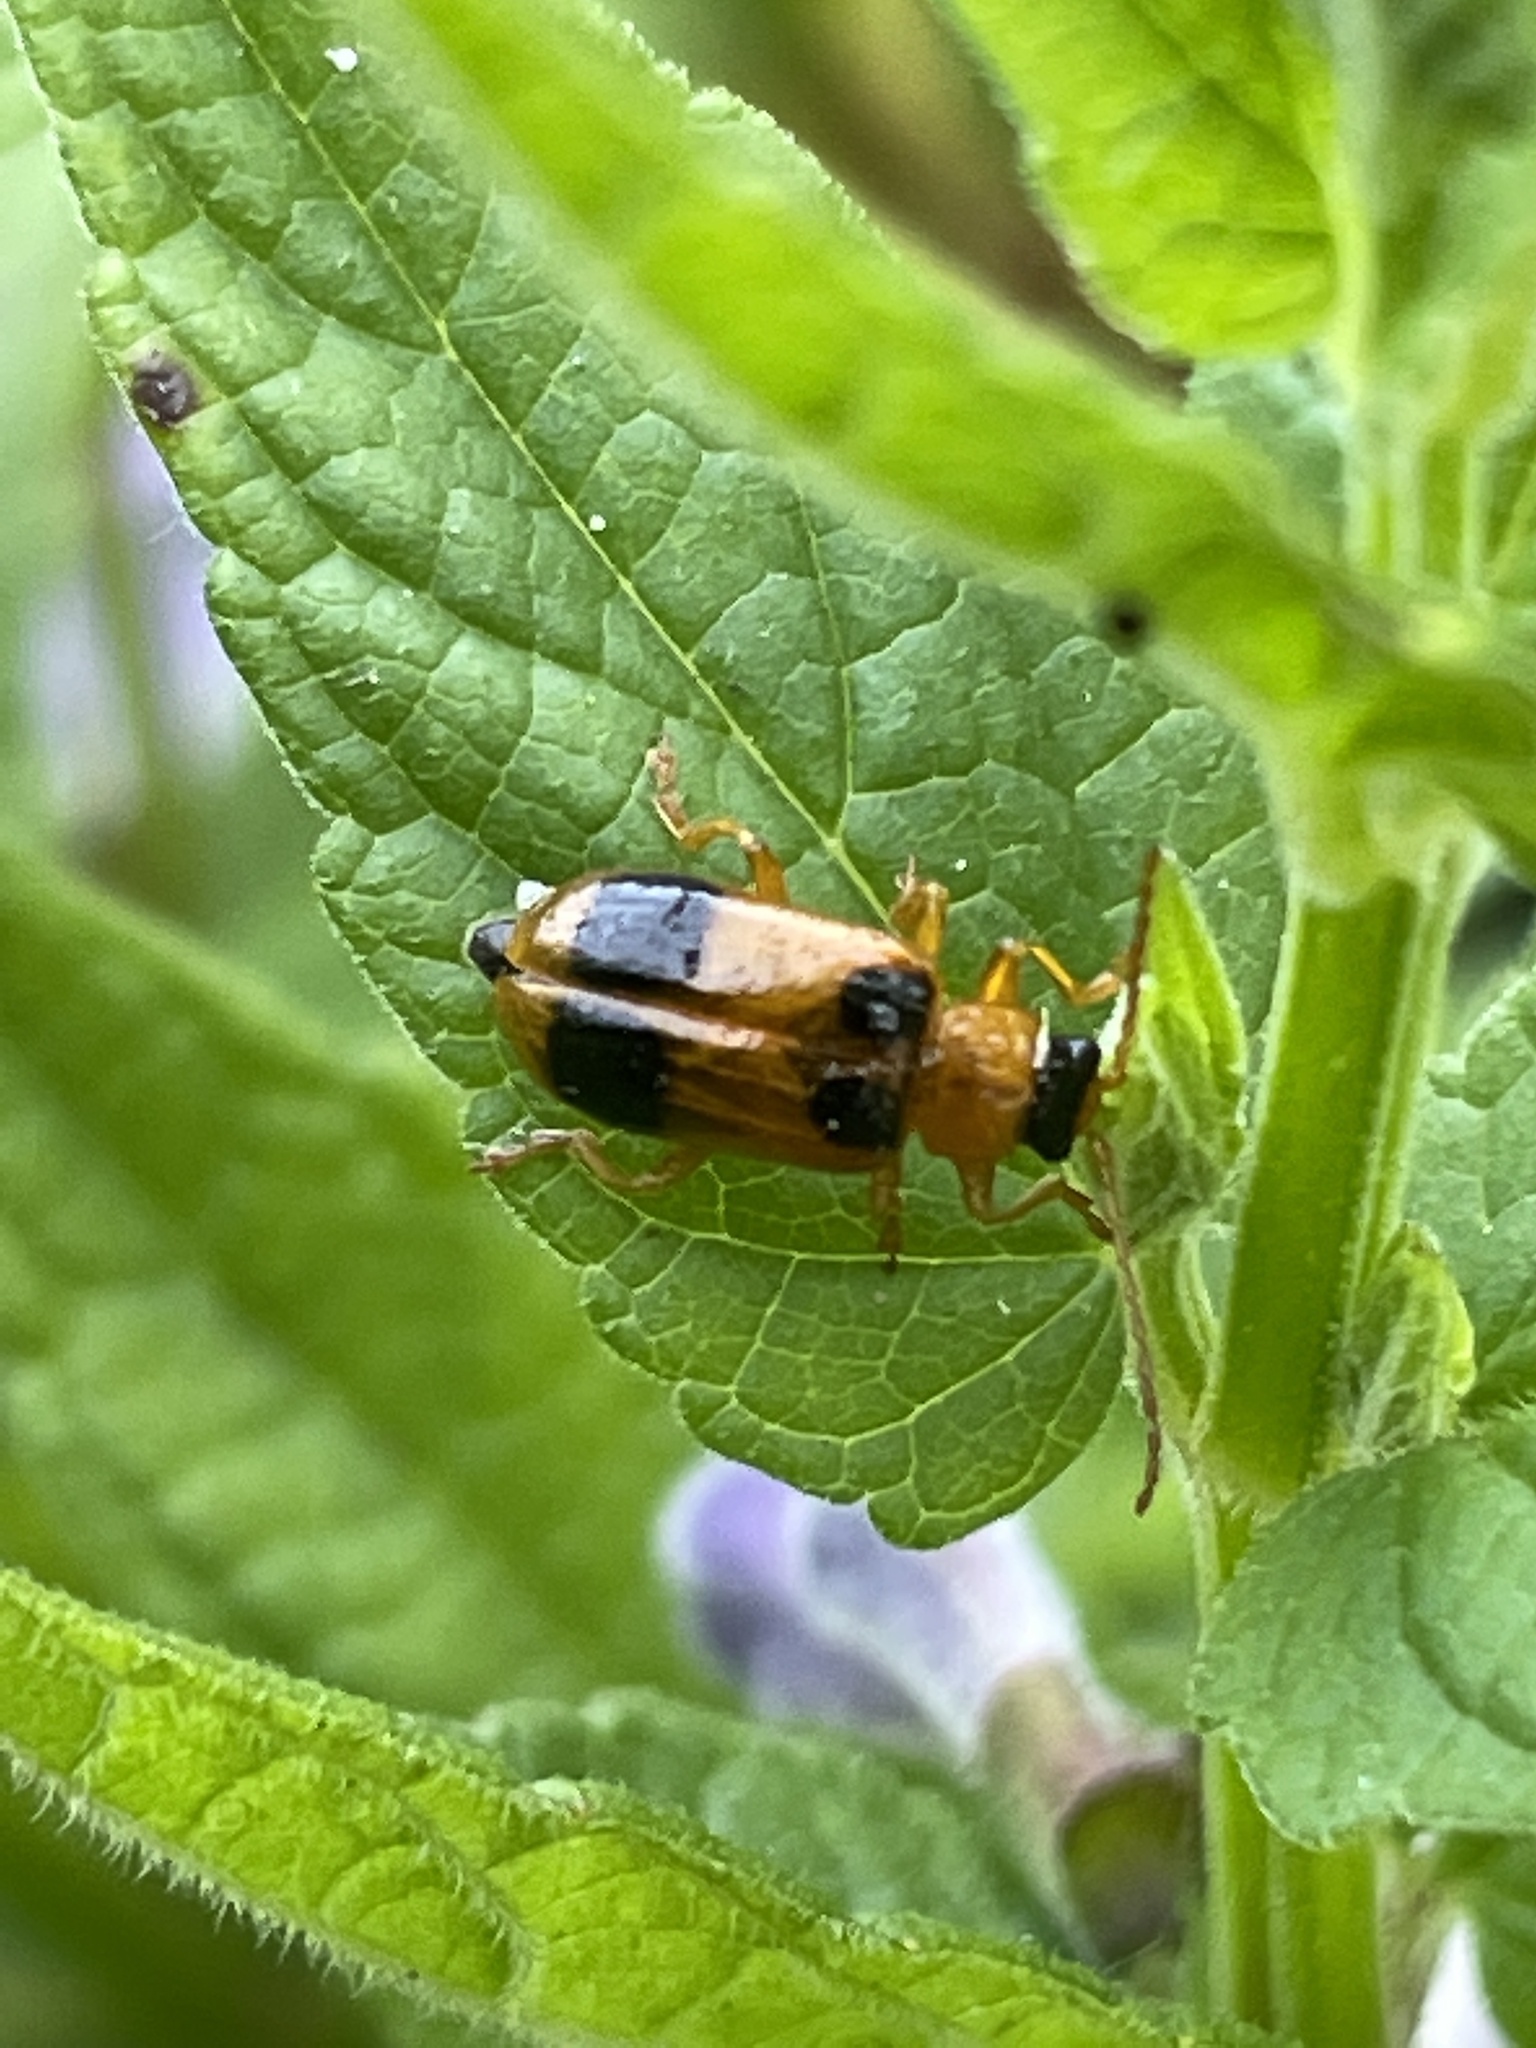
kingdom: Animalia
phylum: Arthropoda
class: Insecta
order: Coleoptera
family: Chrysomelidae
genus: Phyllobrotica
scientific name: Phyllobrotica quadrimaculata
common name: Skullcap leaf beetle
